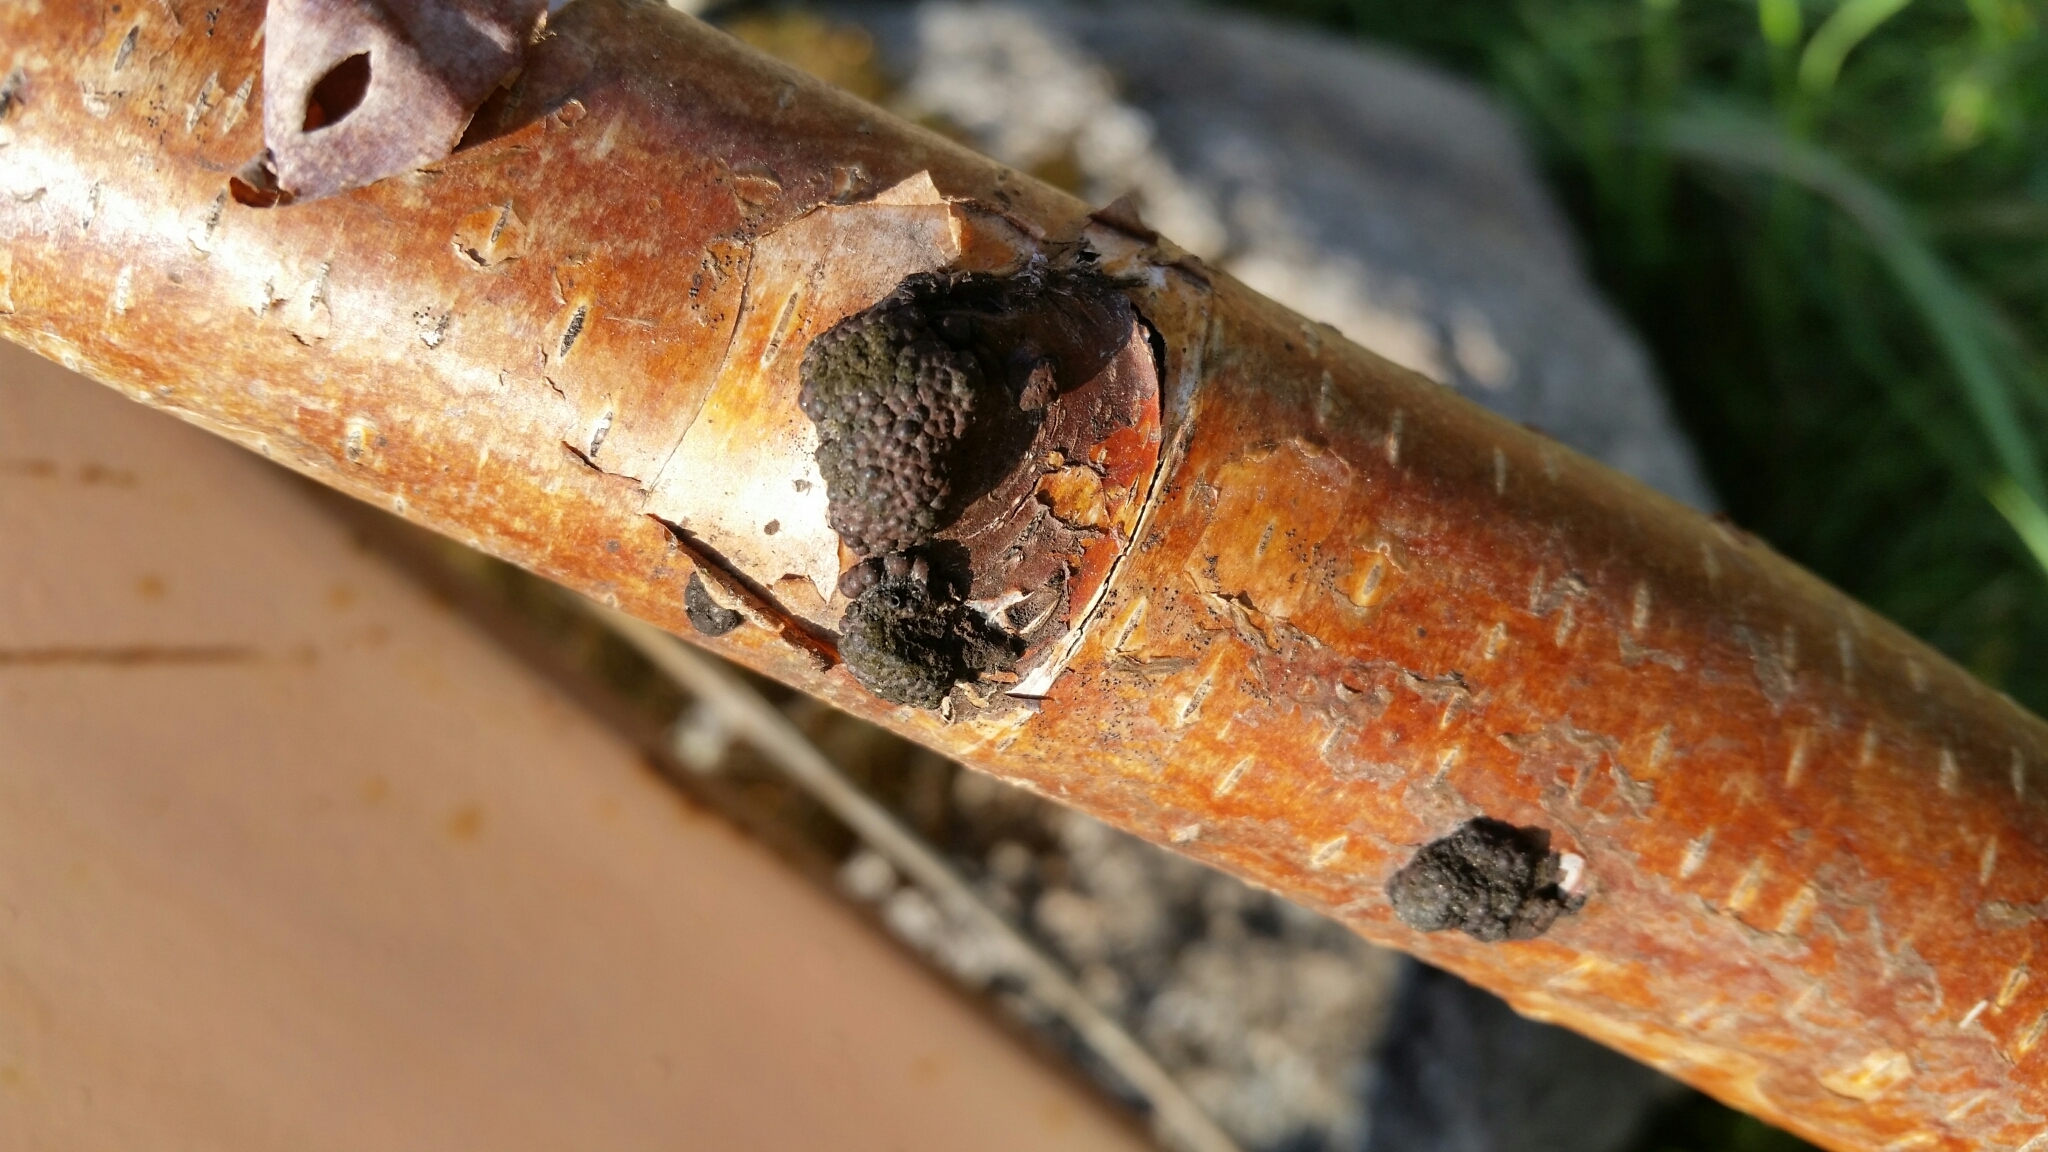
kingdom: Fungi
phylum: Ascomycota
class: Sordariomycetes
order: Xylariales
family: Hypoxylaceae
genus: Jackrogersella
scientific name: Jackrogersella multiformis
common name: Birch woodwart
